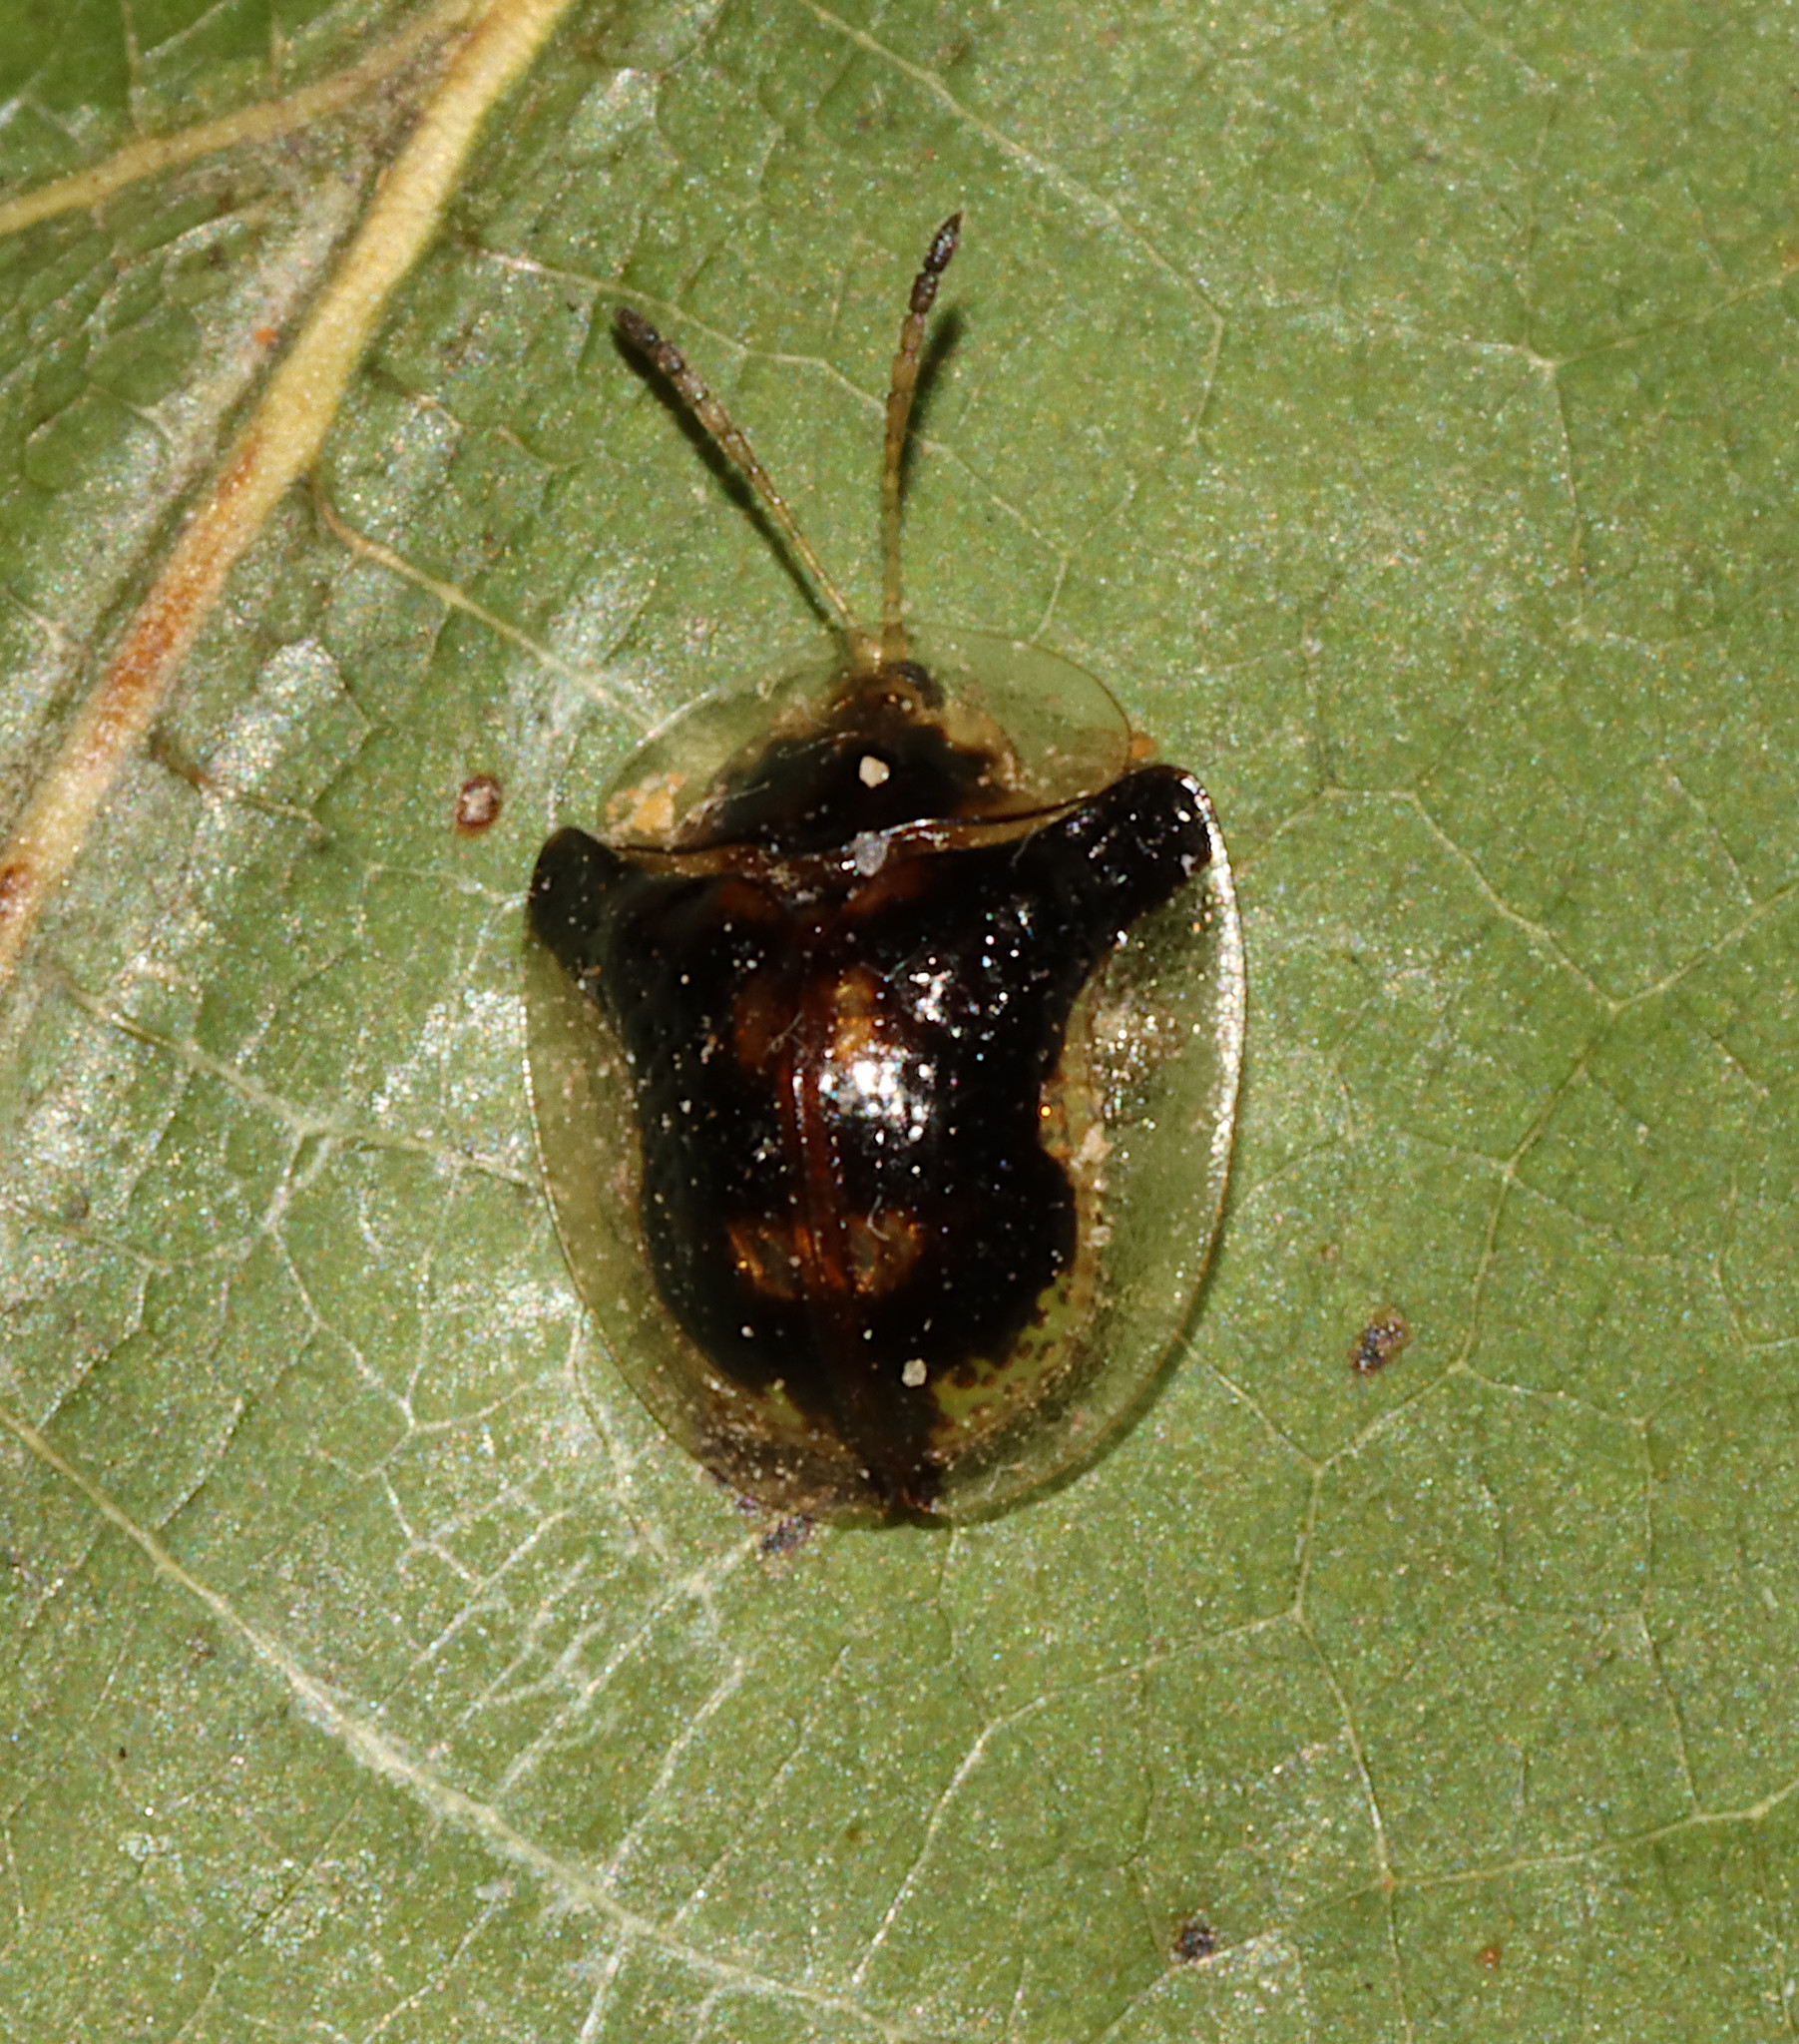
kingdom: Animalia
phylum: Arthropoda
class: Insecta
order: Coleoptera
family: Chrysomelidae
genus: Deloyala
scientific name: Deloyala guttata
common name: Mottled tortoise beetle
